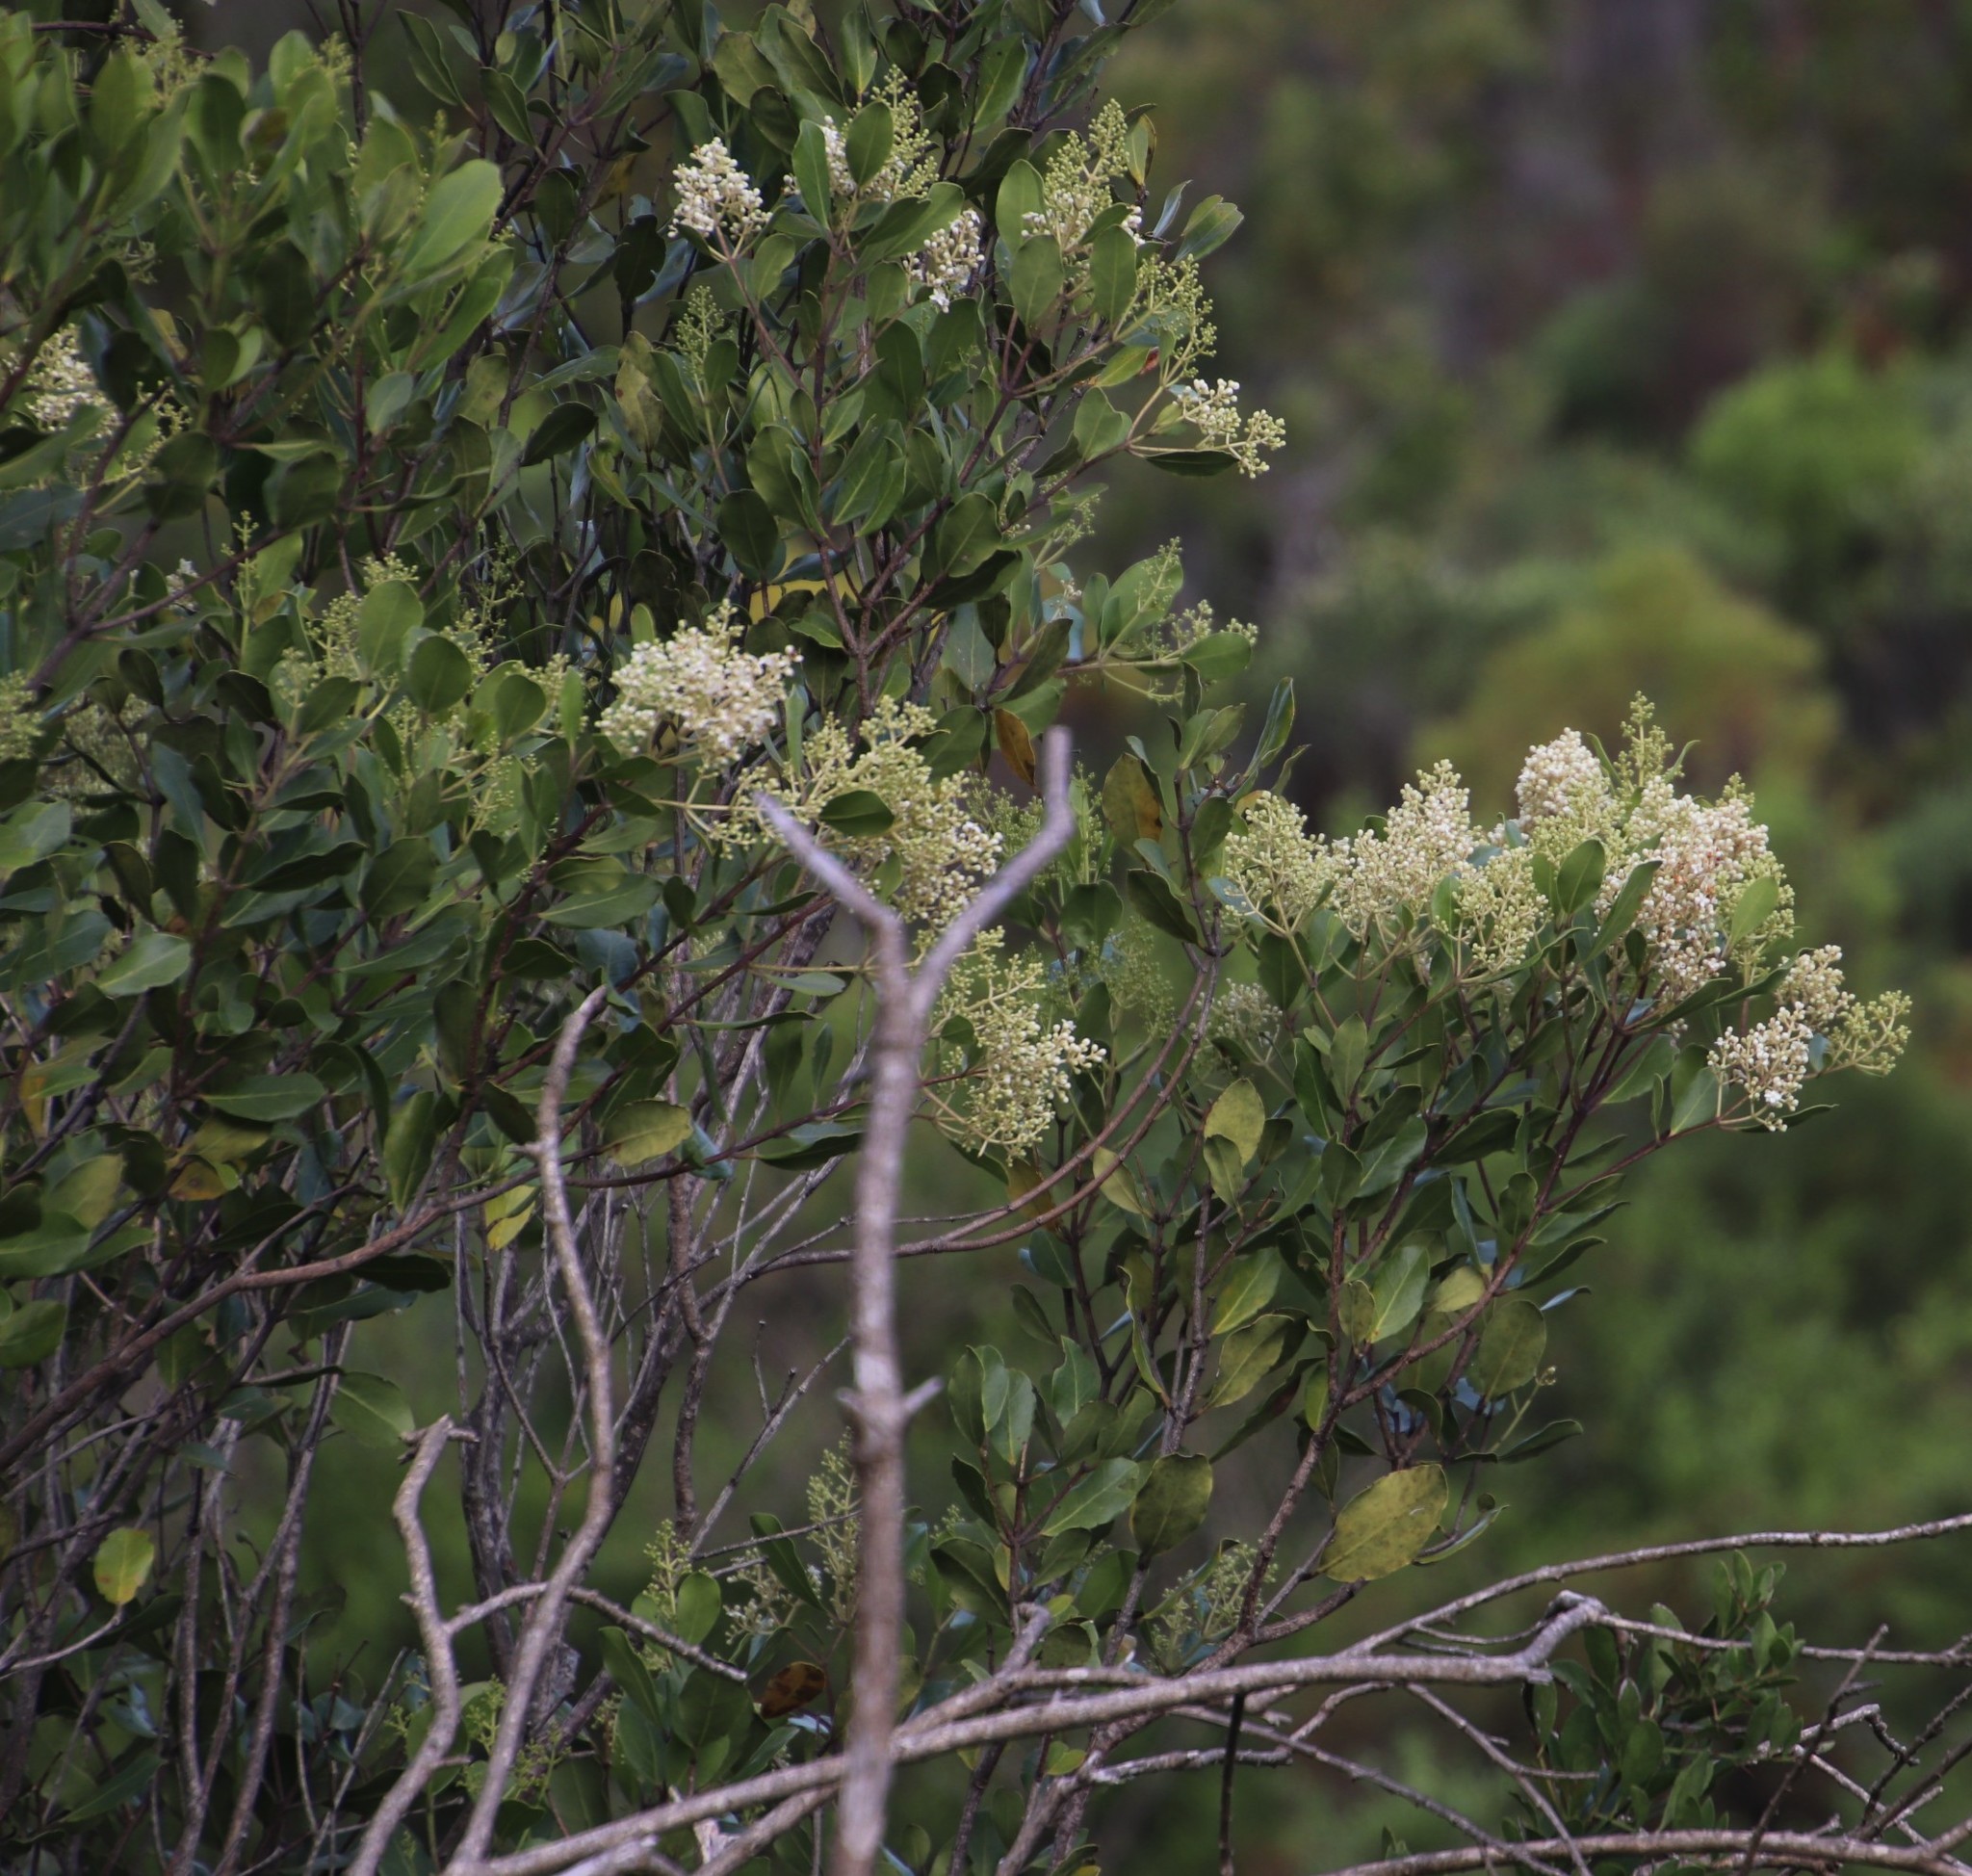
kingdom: Plantae
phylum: Tracheophyta
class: Magnoliopsida
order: Lamiales
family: Oleaceae
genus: Olea
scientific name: Olea capensis
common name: Black ironwood
